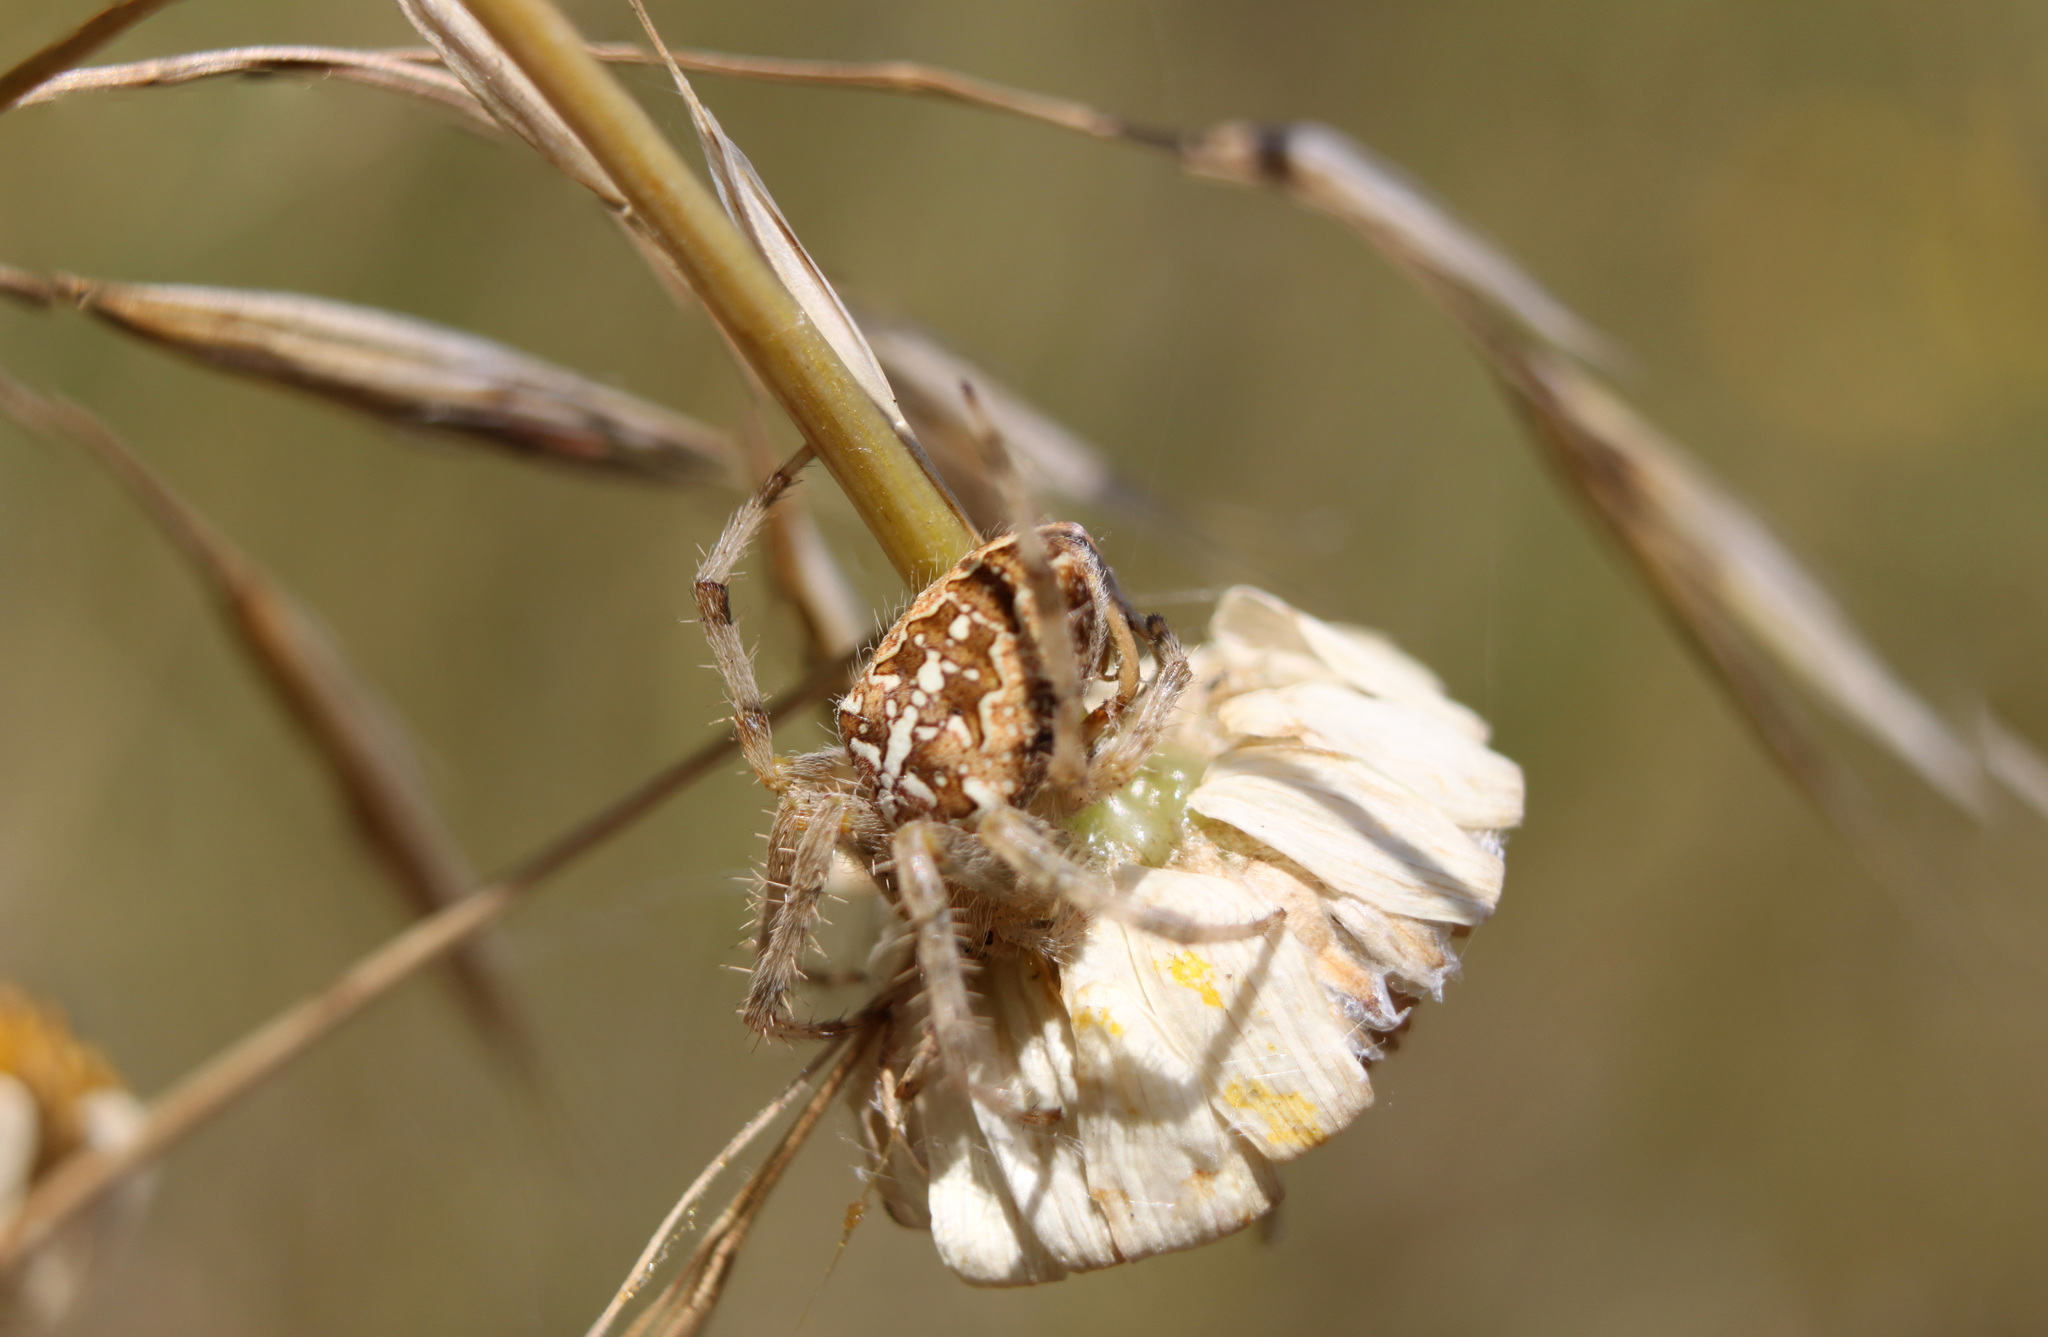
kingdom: Animalia
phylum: Arthropoda
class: Arachnida
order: Araneae
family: Araneidae
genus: Araneus
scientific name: Araneus diadematus
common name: Cross orbweaver
